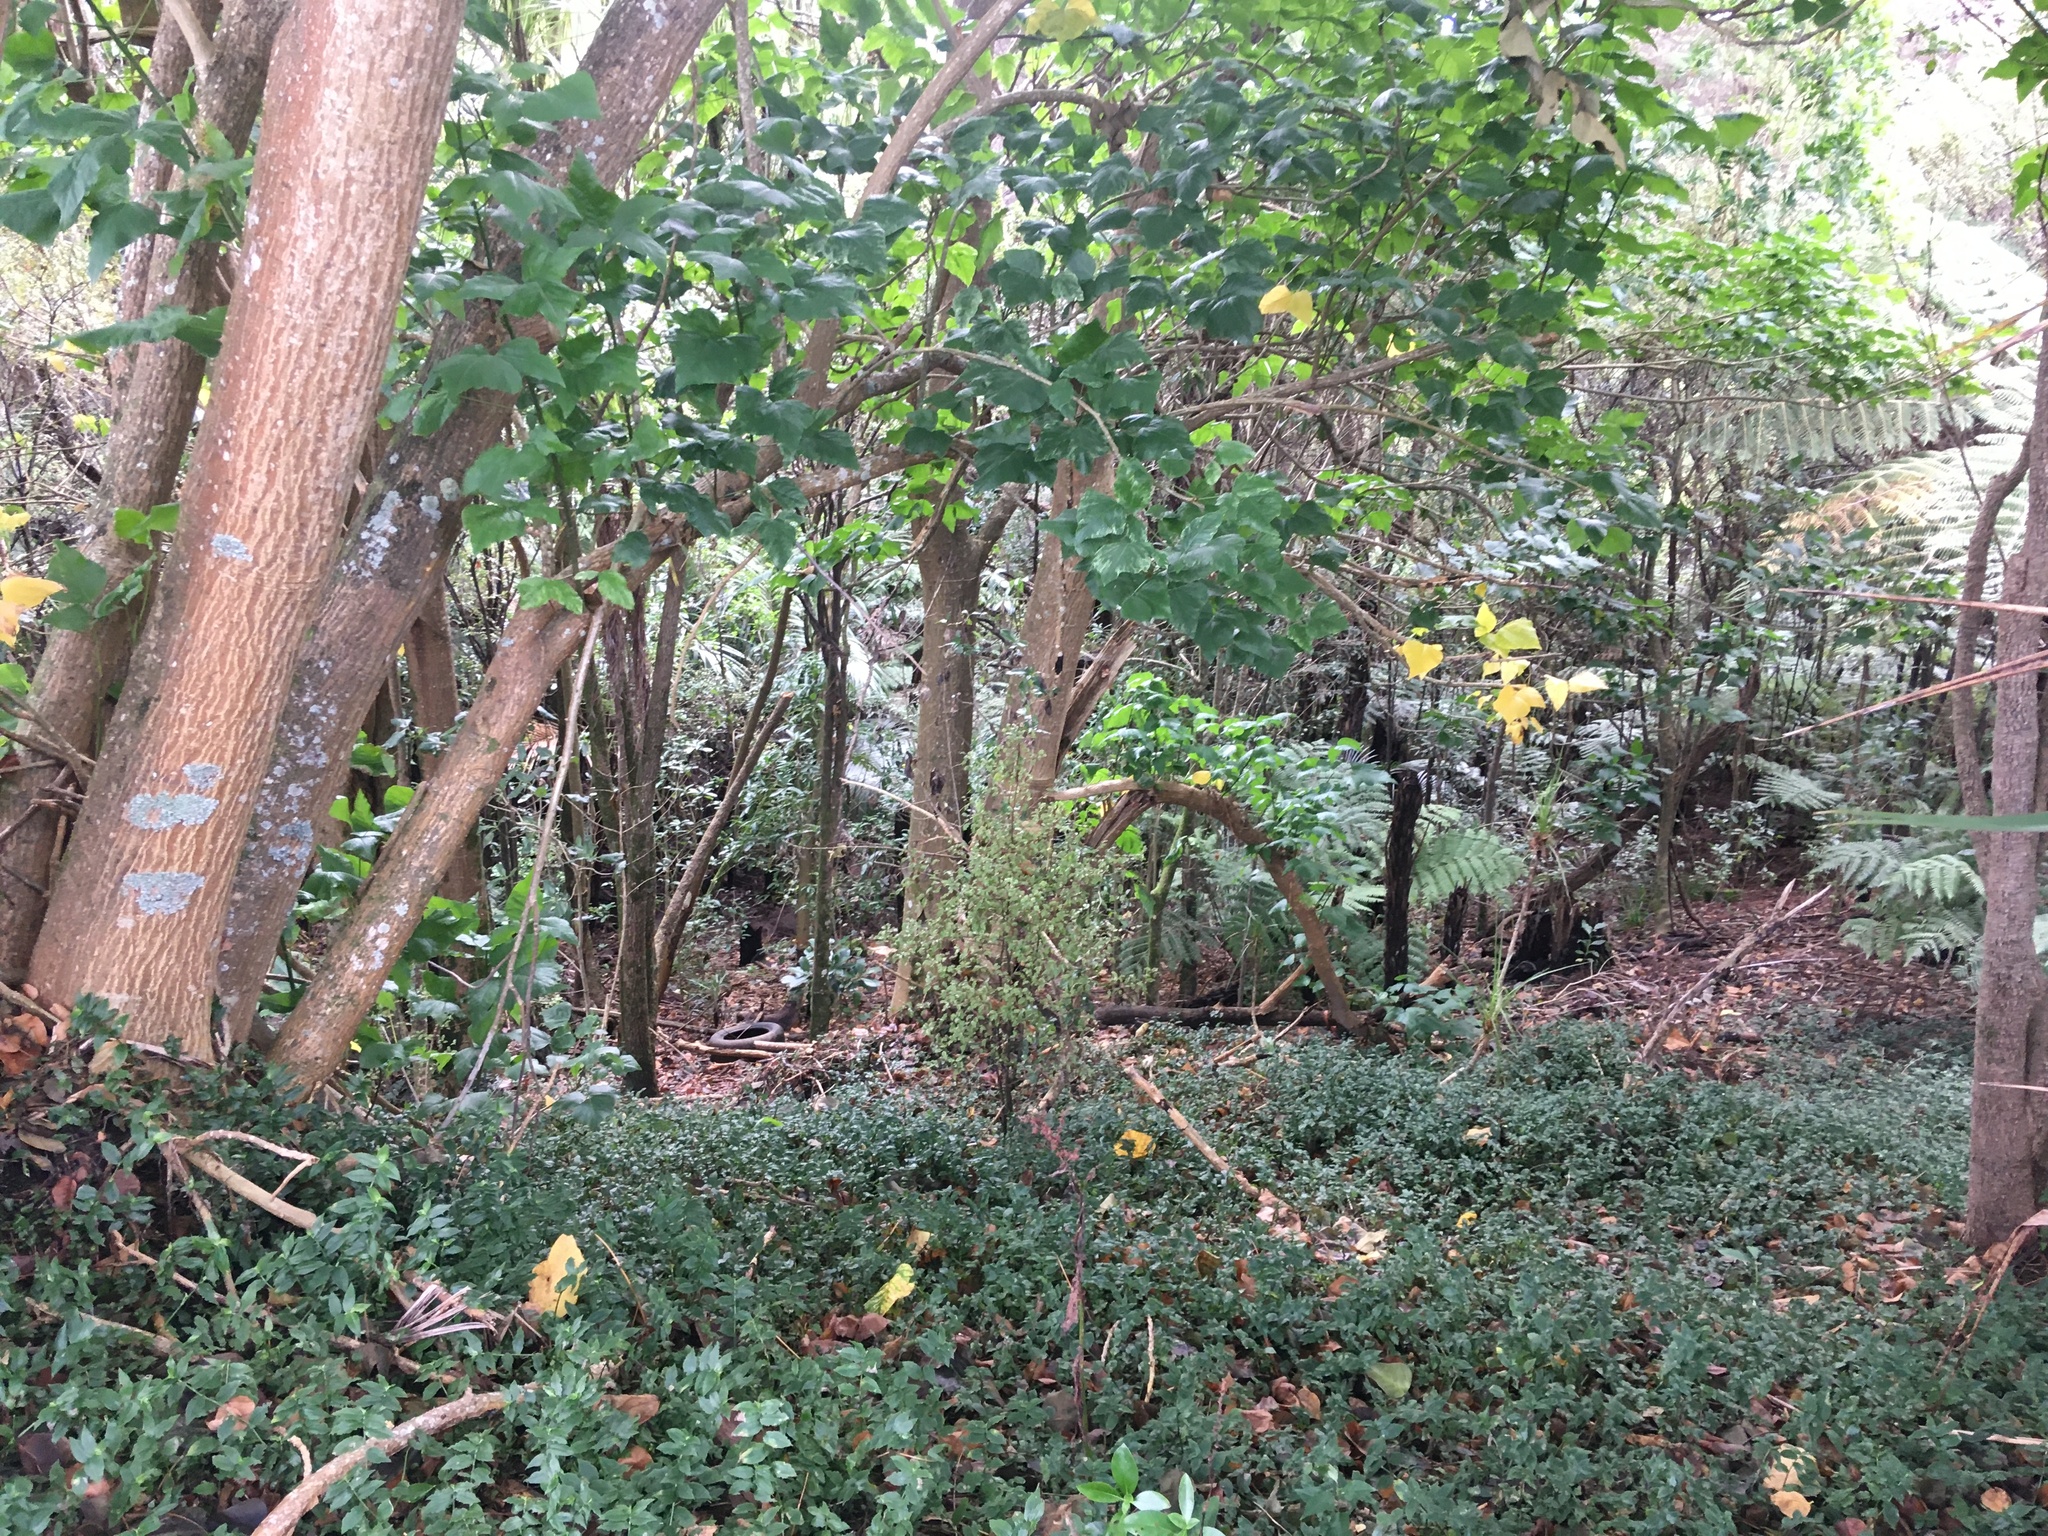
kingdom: Plantae
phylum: Tracheophyta
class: Magnoliopsida
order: Fabales
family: Fabaceae
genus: Erythrina
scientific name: Erythrina sykesii
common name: Coraltree
